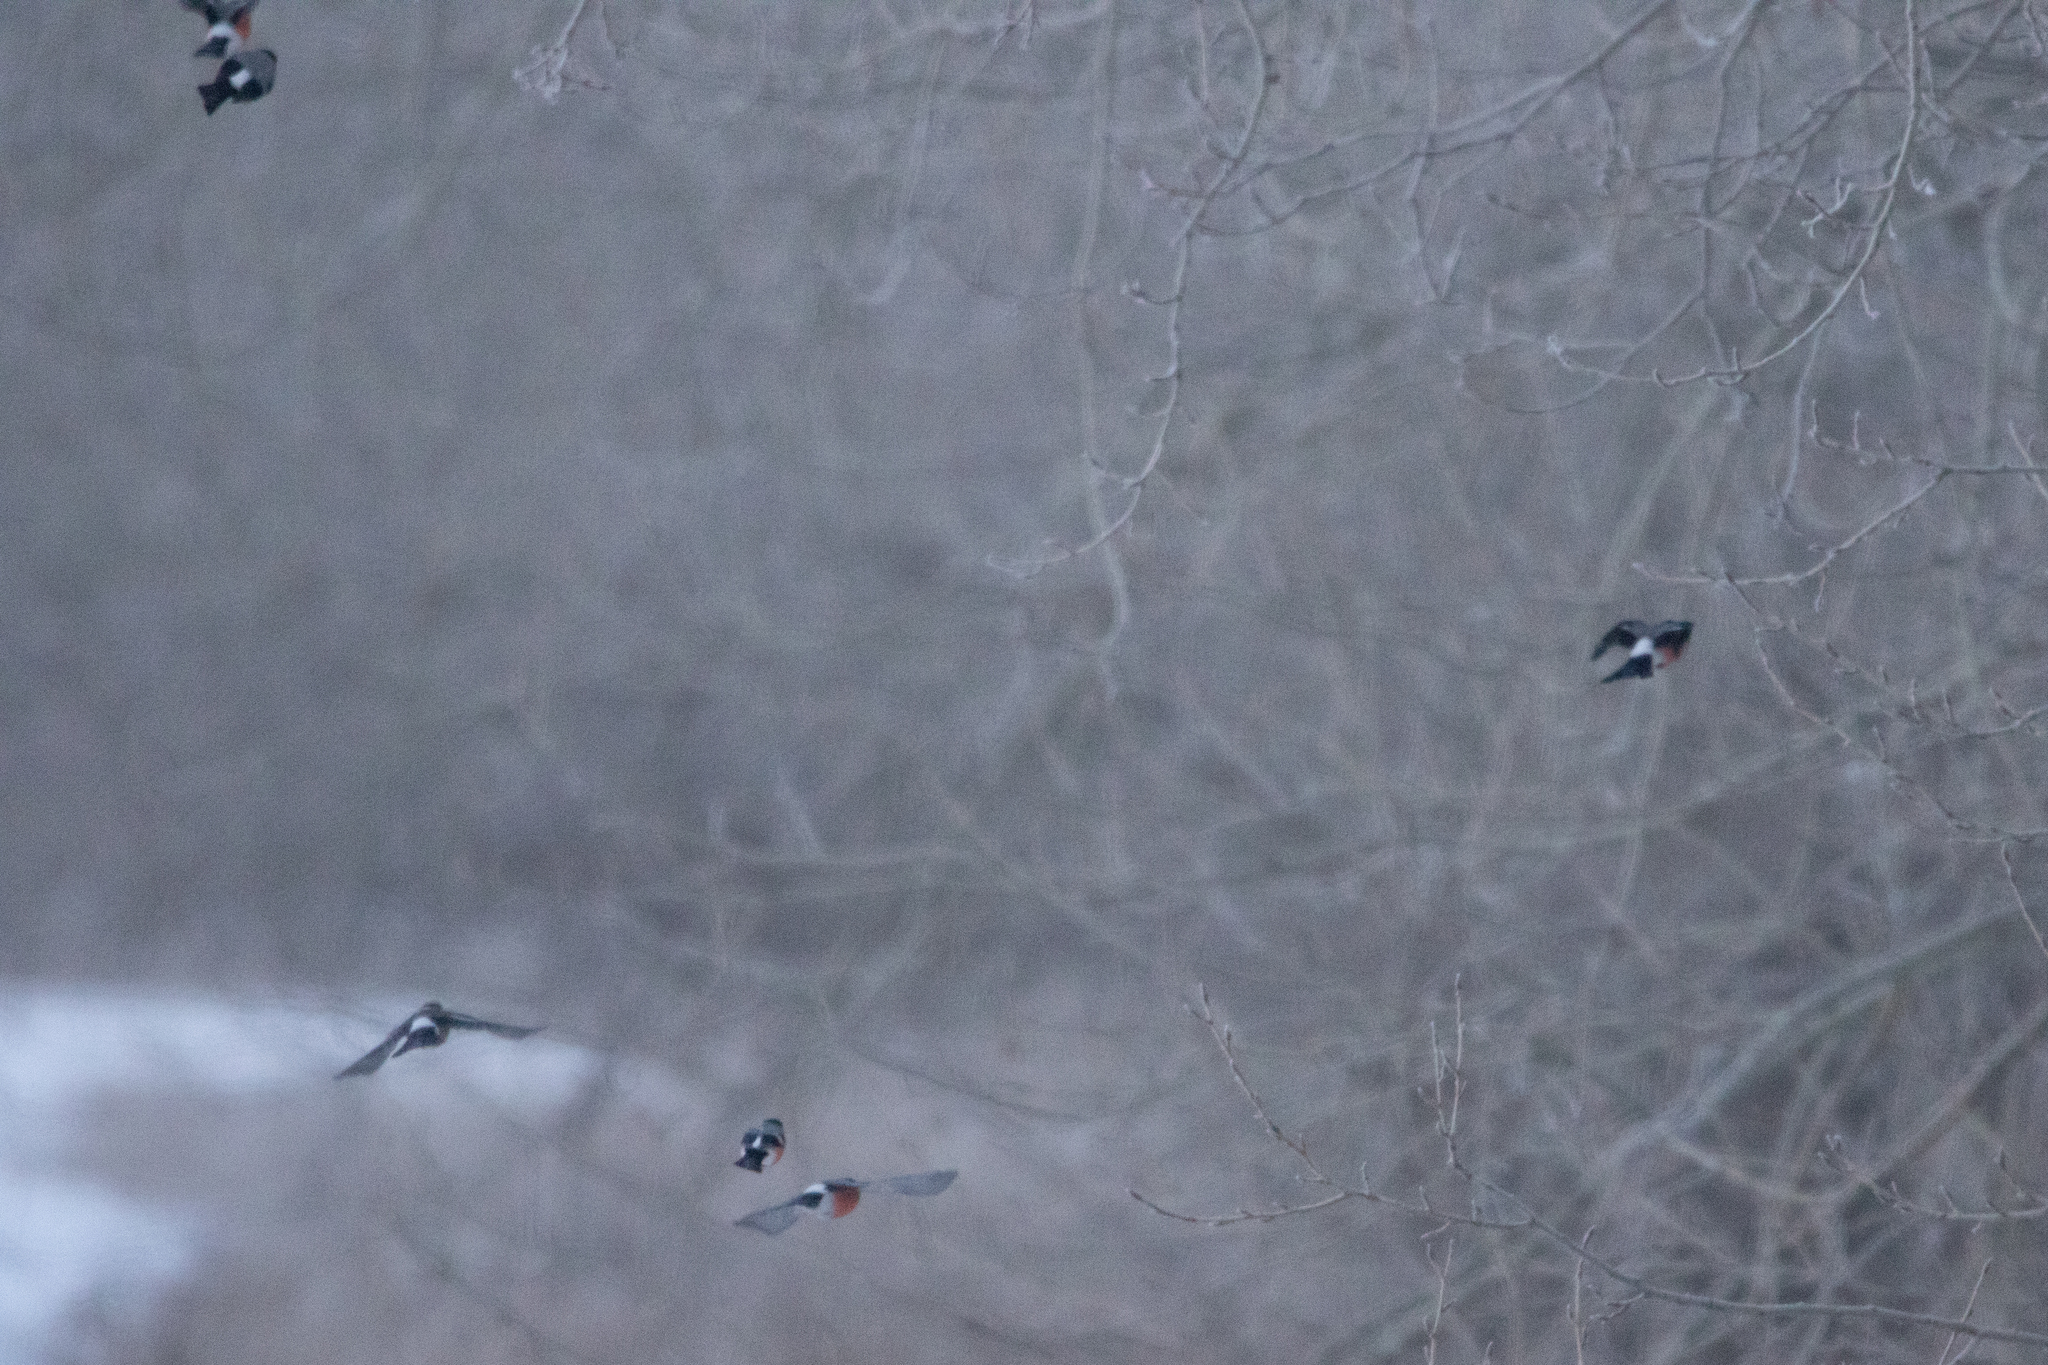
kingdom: Animalia
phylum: Chordata
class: Aves
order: Passeriformes
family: Fringillidae
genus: Pyrrhula
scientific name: Pyrrhula pyrrhula
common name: Eurasian bullfinch
